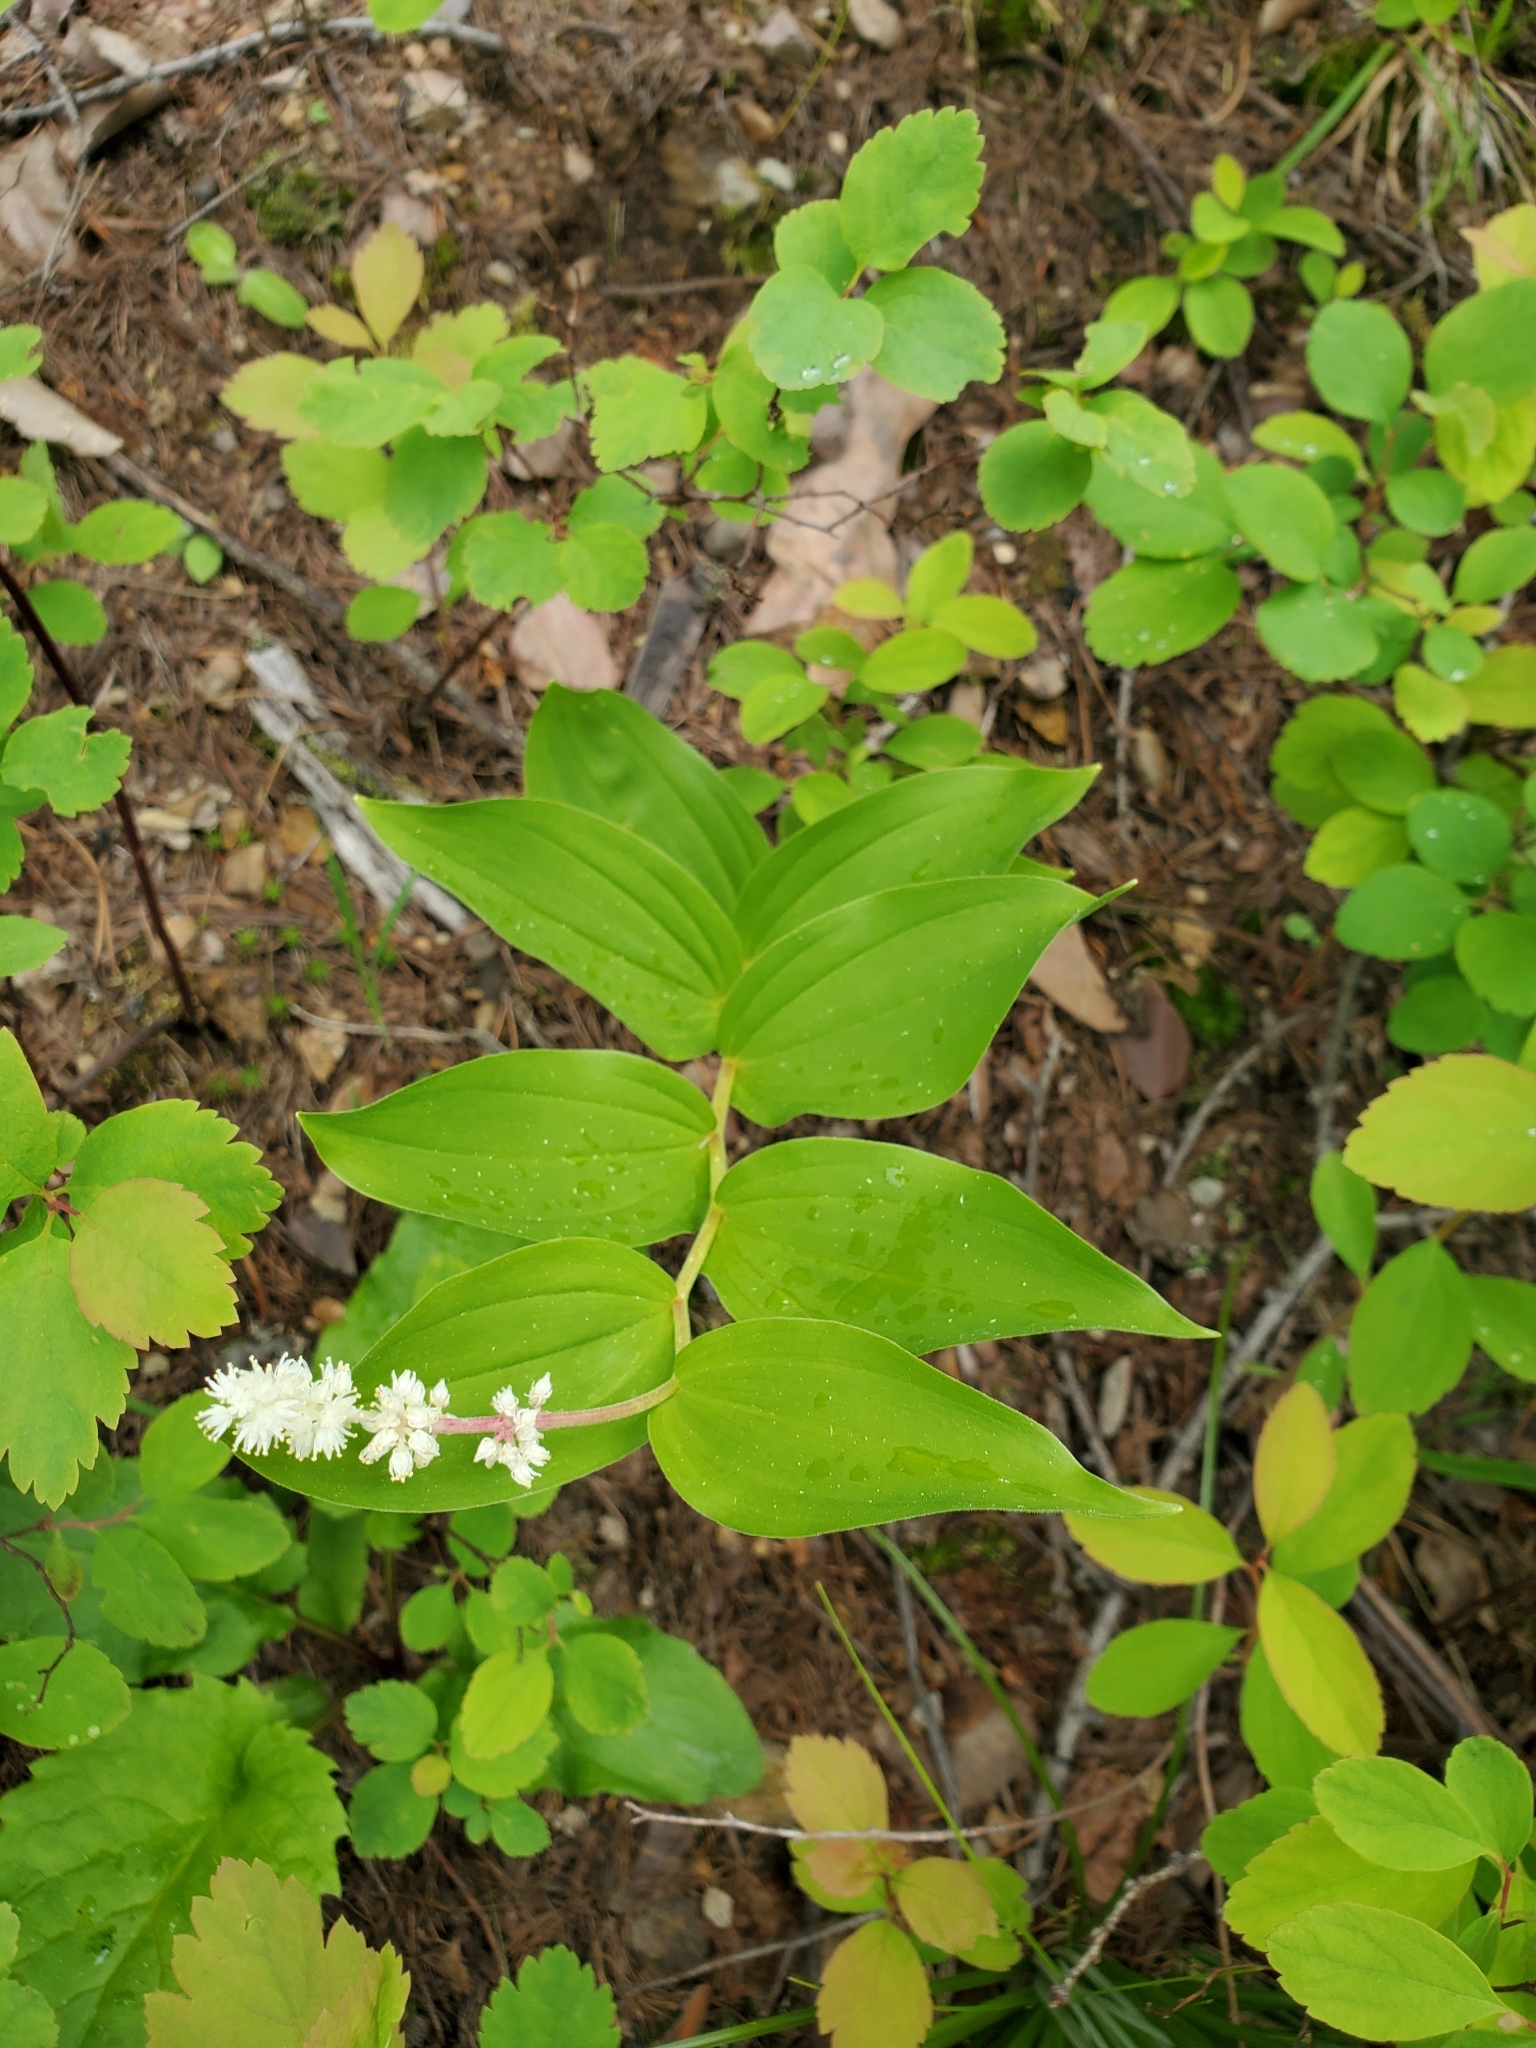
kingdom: Plantae
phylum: Tracheophyta
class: Liliopsida
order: Asparagales
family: Asparagaceae
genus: Maianthemum
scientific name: Maianthemum racemosum
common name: False spikenard
